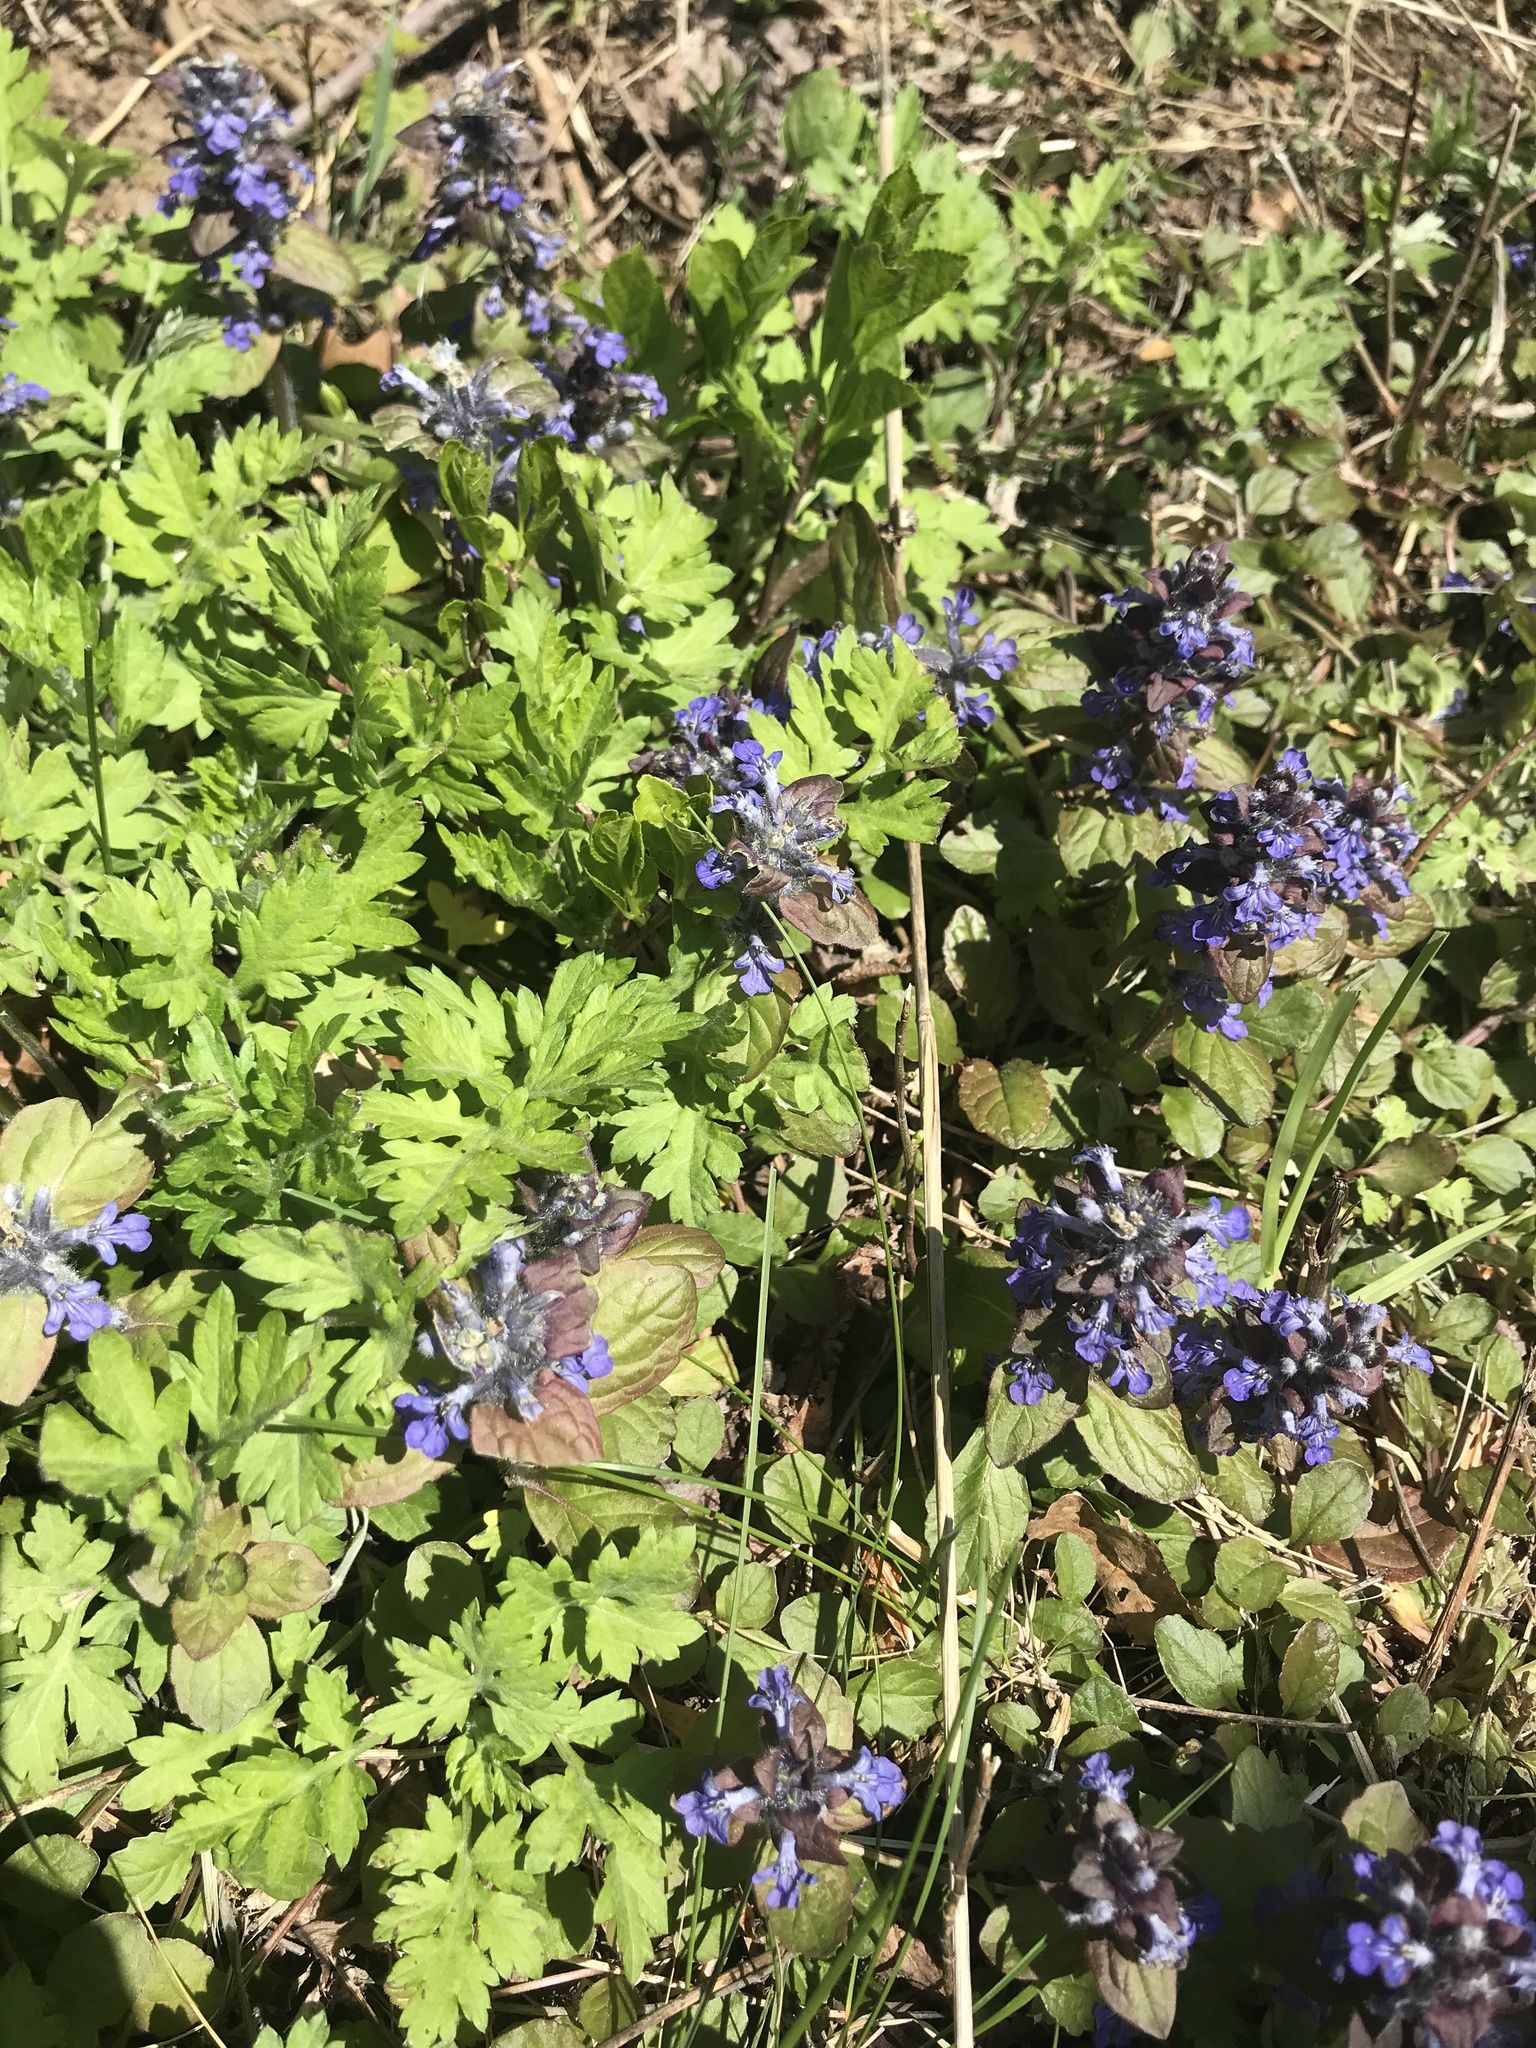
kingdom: Plantae
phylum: Tracheophyta
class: Magnoliopsida
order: Lamiales
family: Lamiaceae
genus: Ajuga
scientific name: Ajuga reptans
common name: Bugle
